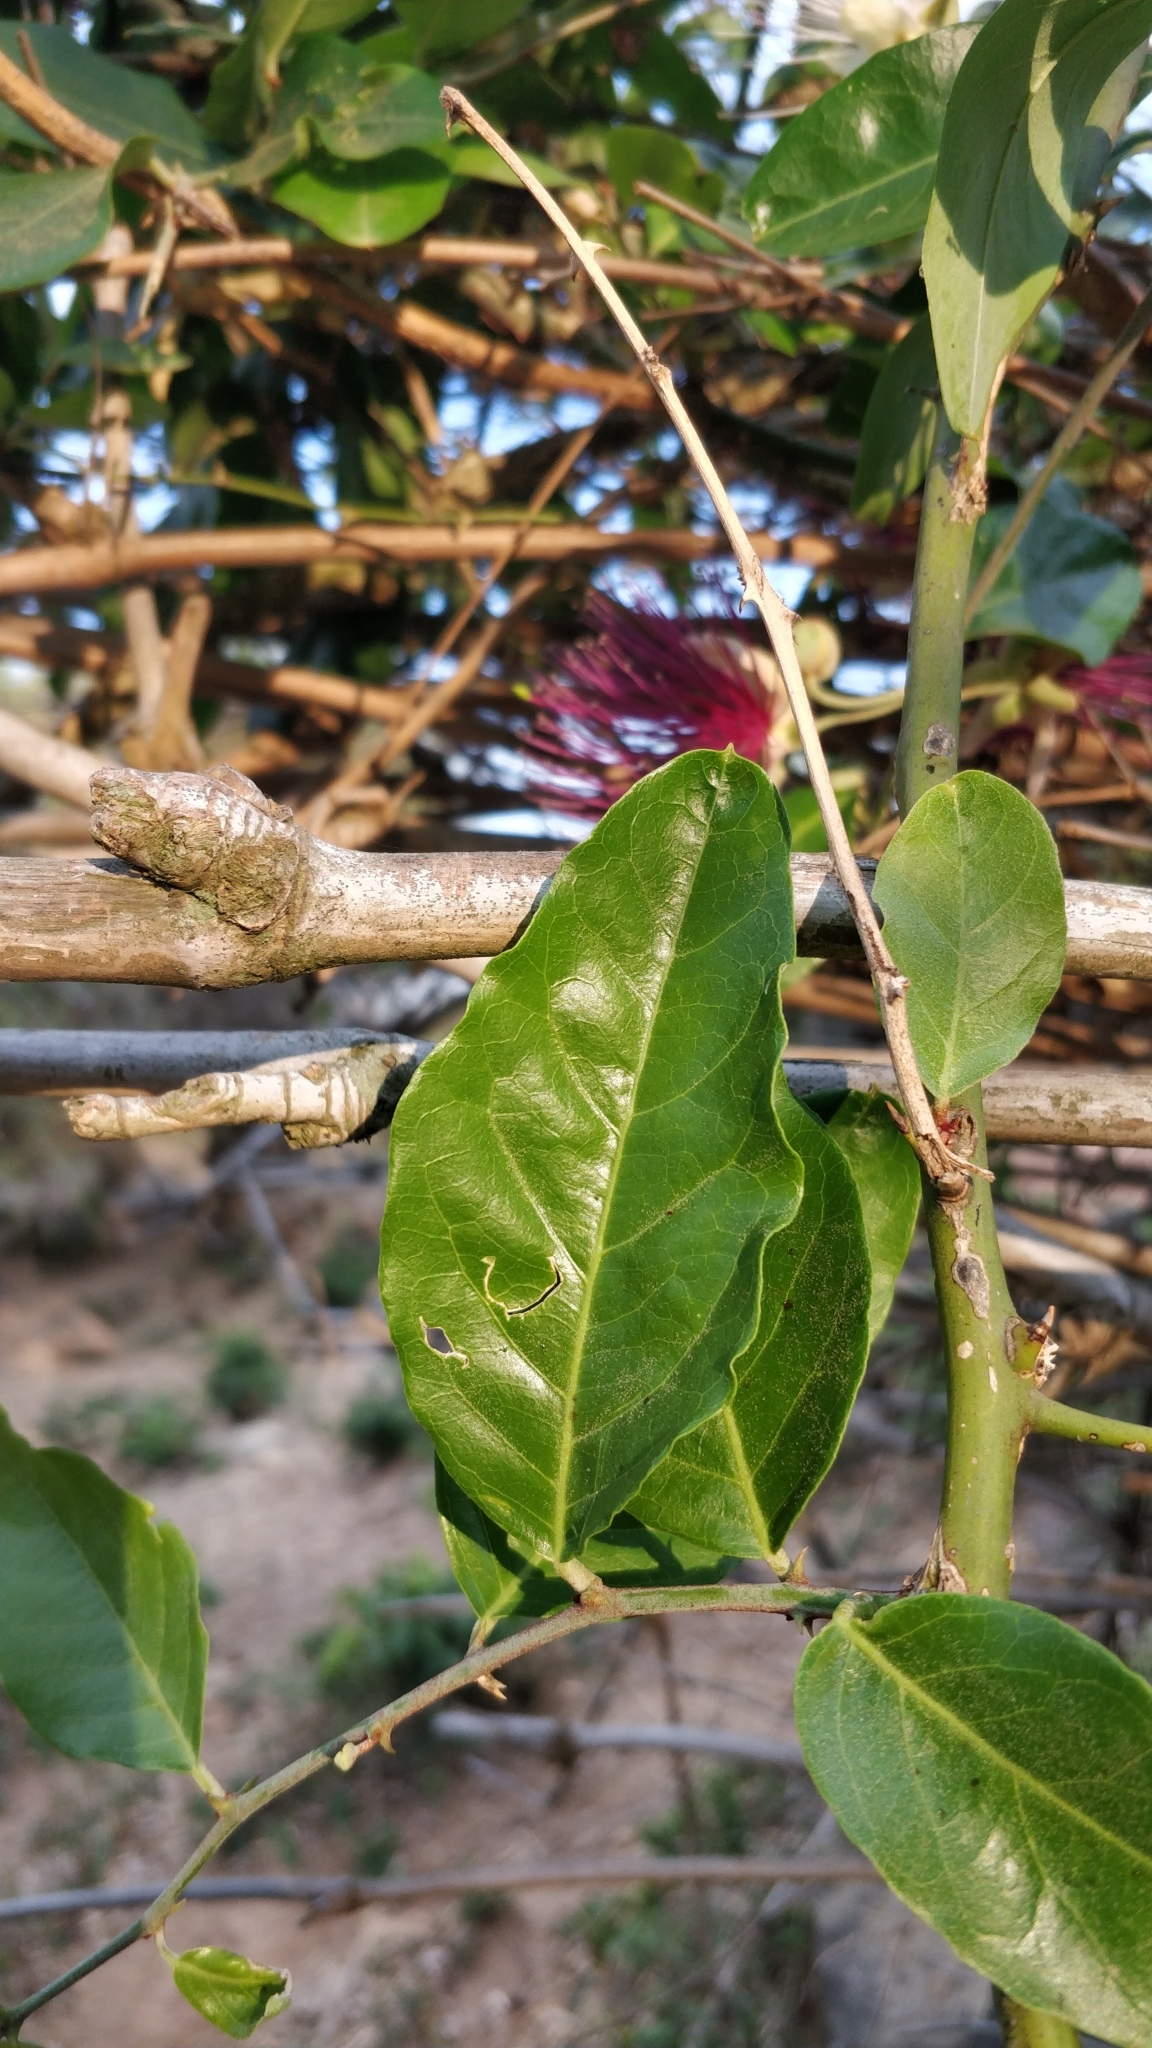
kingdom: Plantae
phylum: Tracheophyta
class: Magnoliopsida
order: Brassicales
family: Capparaceae
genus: Capparis
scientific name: Capparis zeylanica
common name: Ceylon caper
